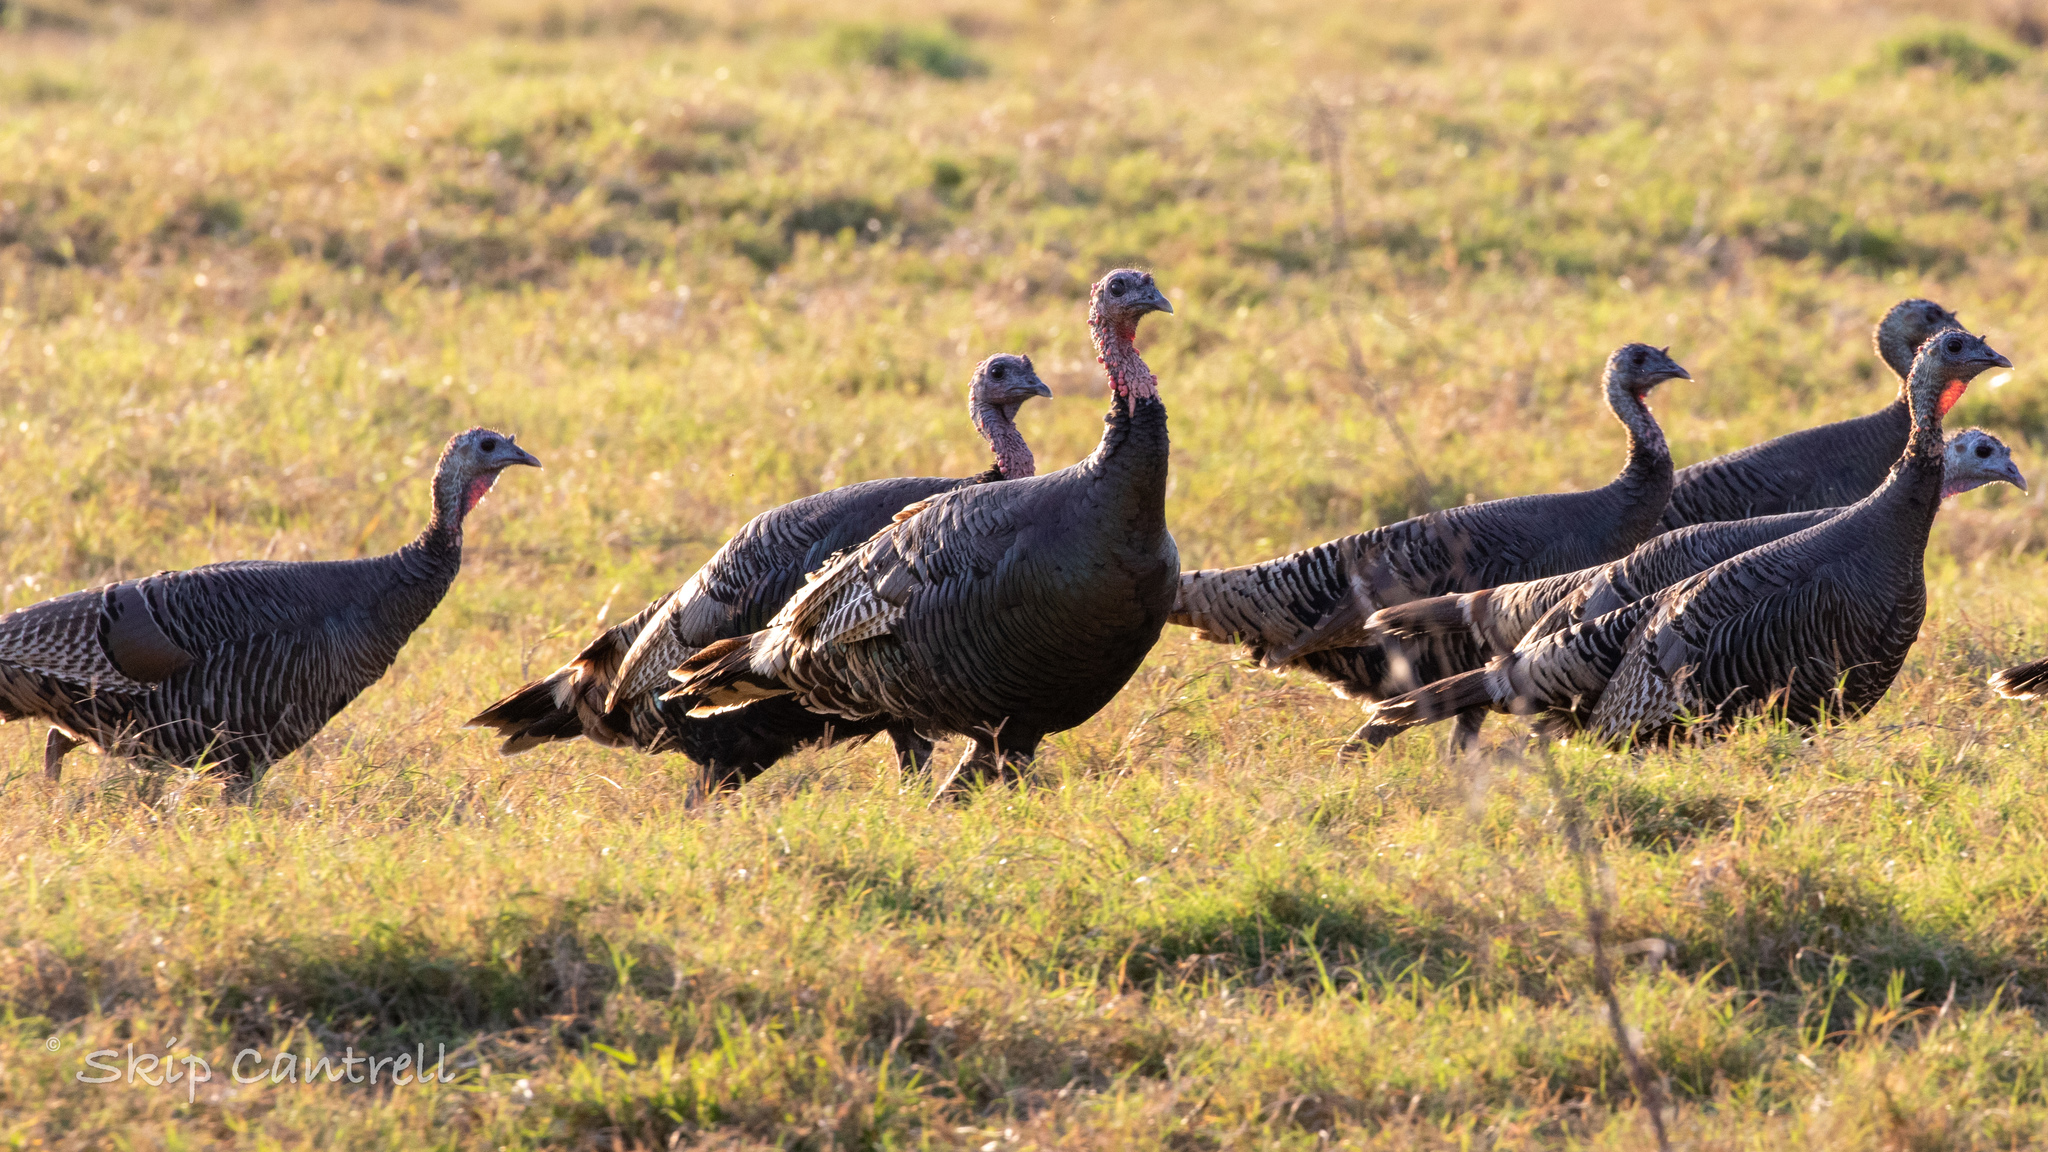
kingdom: Animalia
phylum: Chordata
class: Aves
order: Galliformes
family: Phasianidae
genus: Meleagris
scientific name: Meleagris gallopavo
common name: Wild turkey
